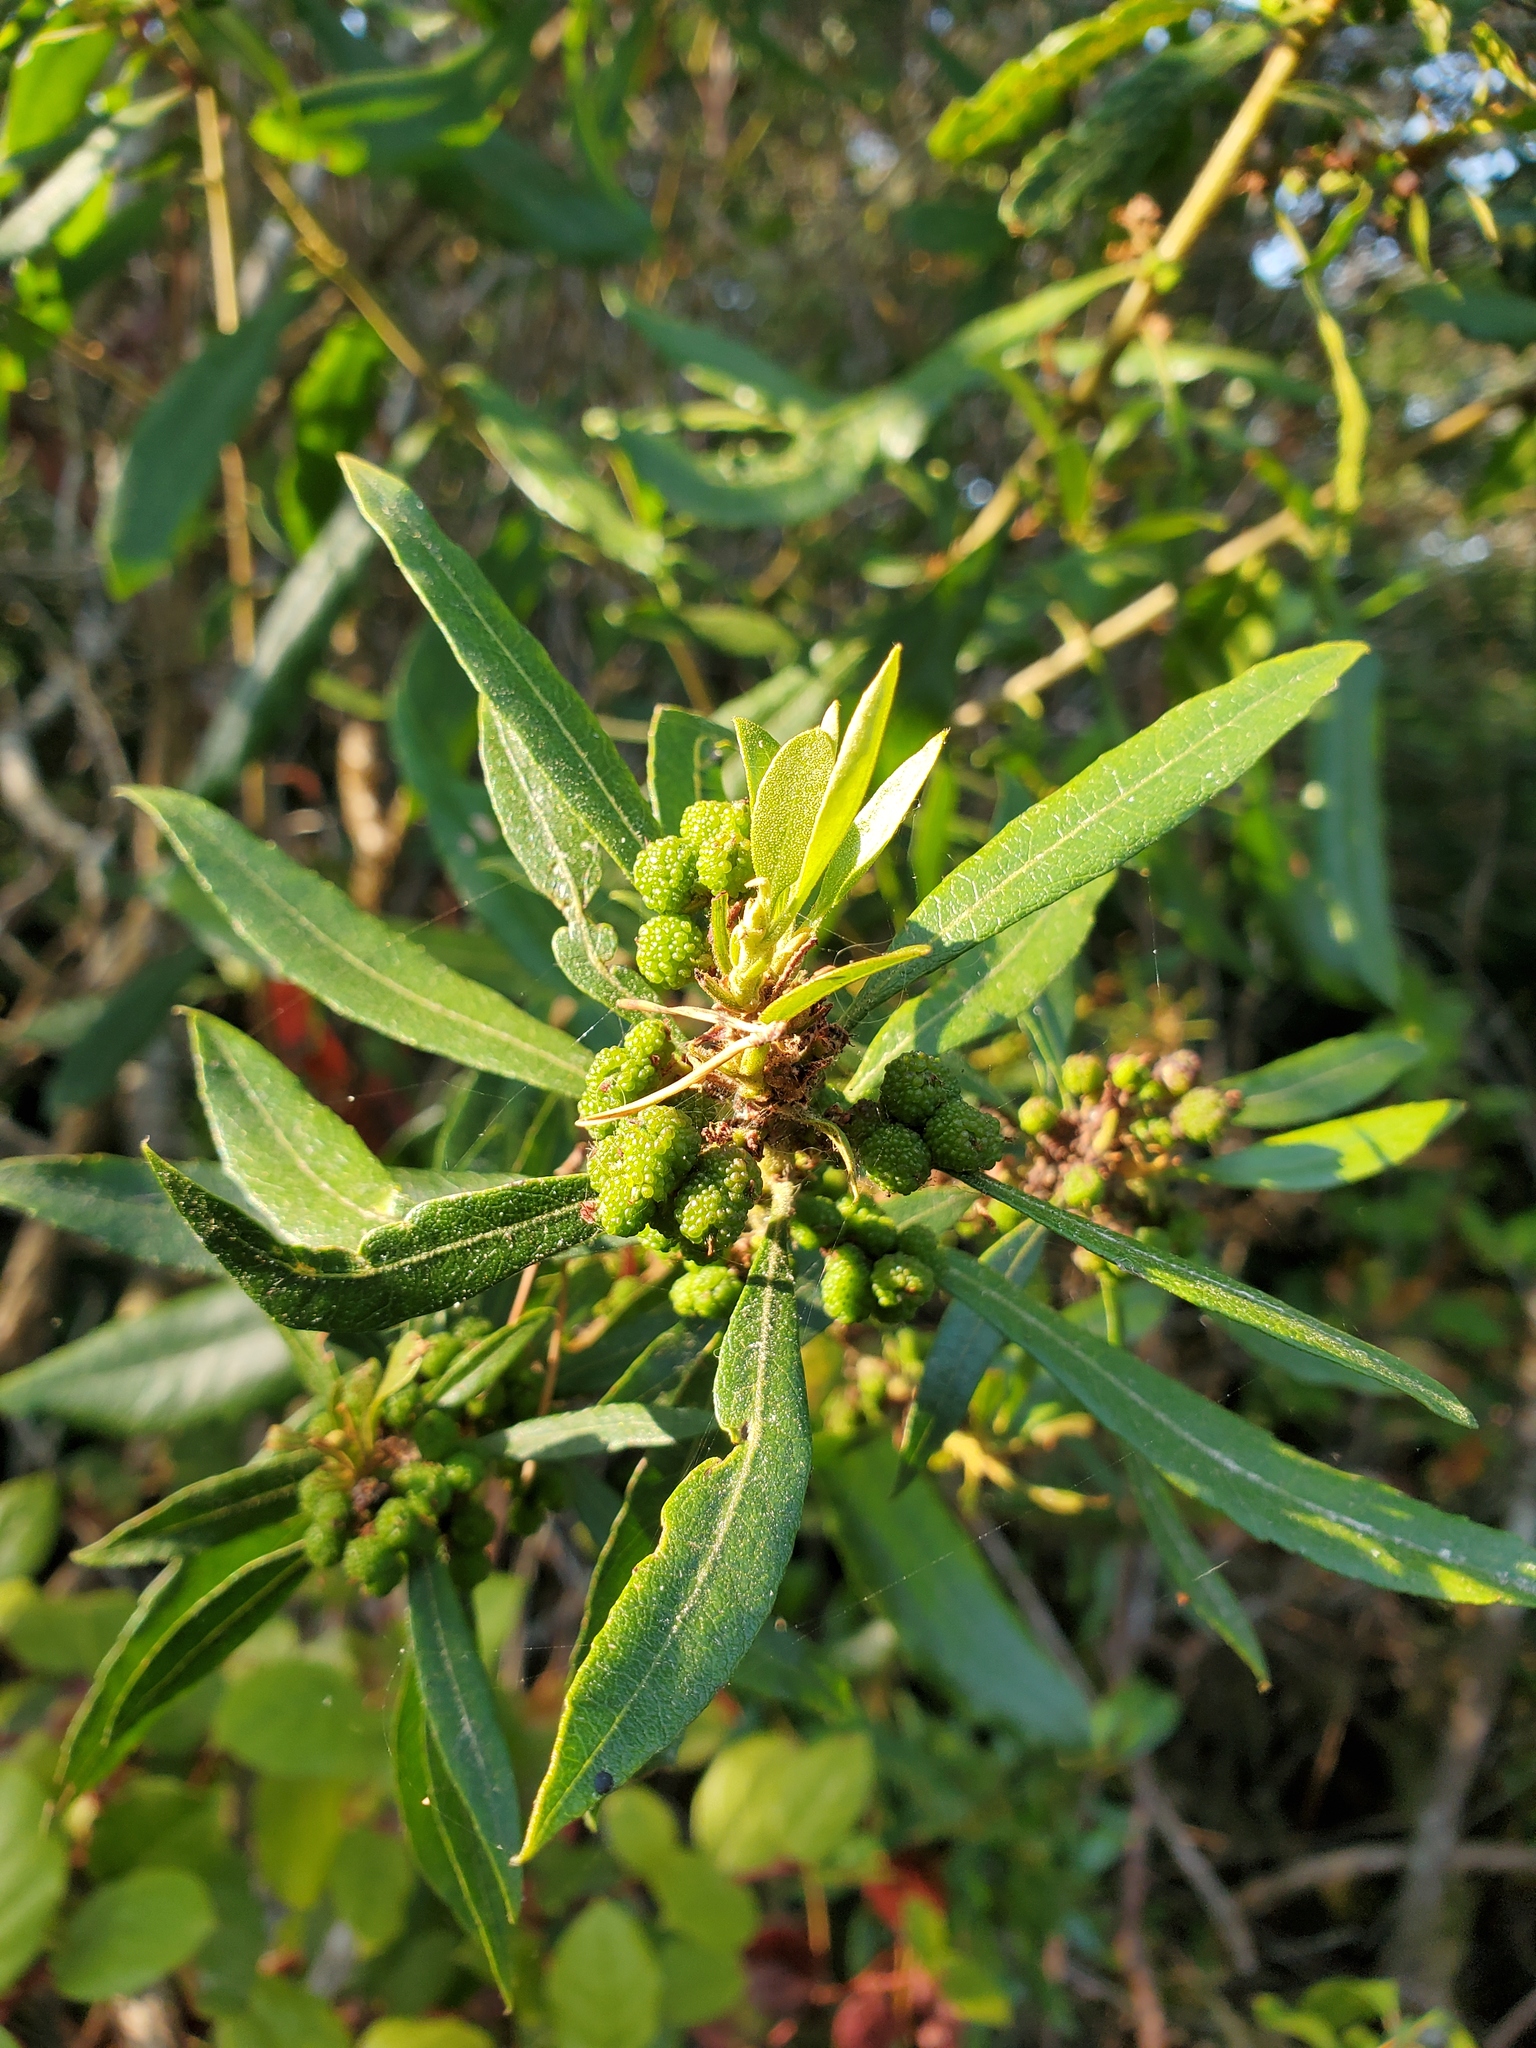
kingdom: Plantae
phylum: Tracheophyta
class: Magnoliopsida
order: Fagales
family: Myricaceae
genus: Morella
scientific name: Morella californica
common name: California wax-myrtle
